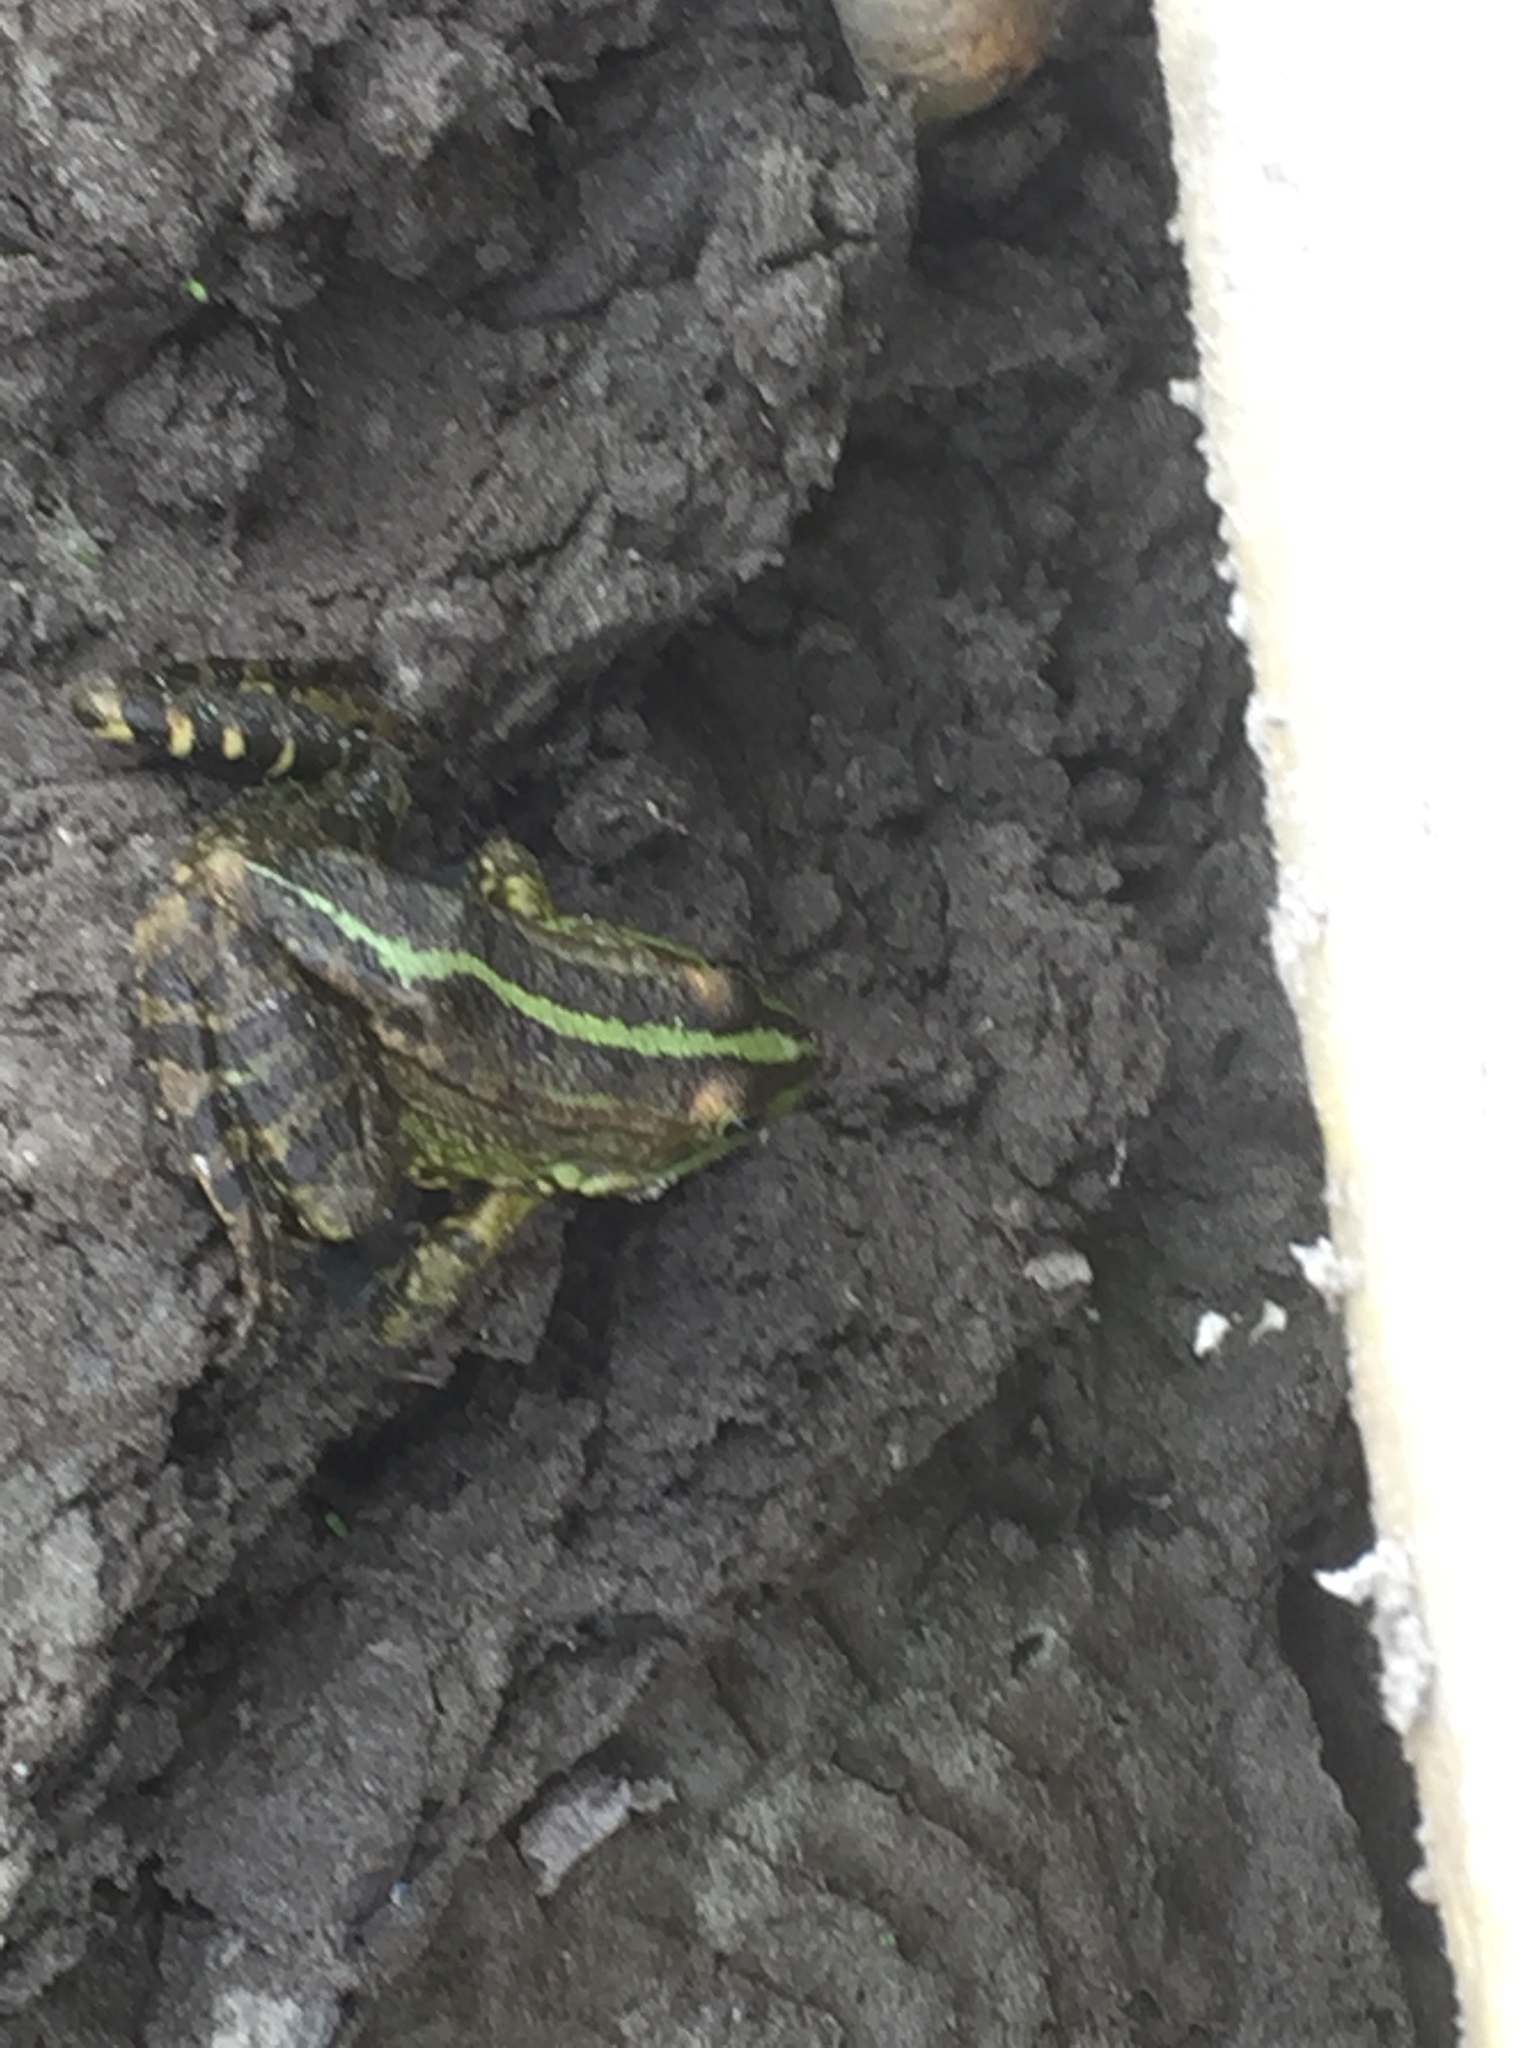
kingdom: Animalia
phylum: Chordata
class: Amphibia
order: Anura
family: Ranidae
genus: Pelophylax
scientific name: Pelophylax ridibundus
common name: Marsh frog
